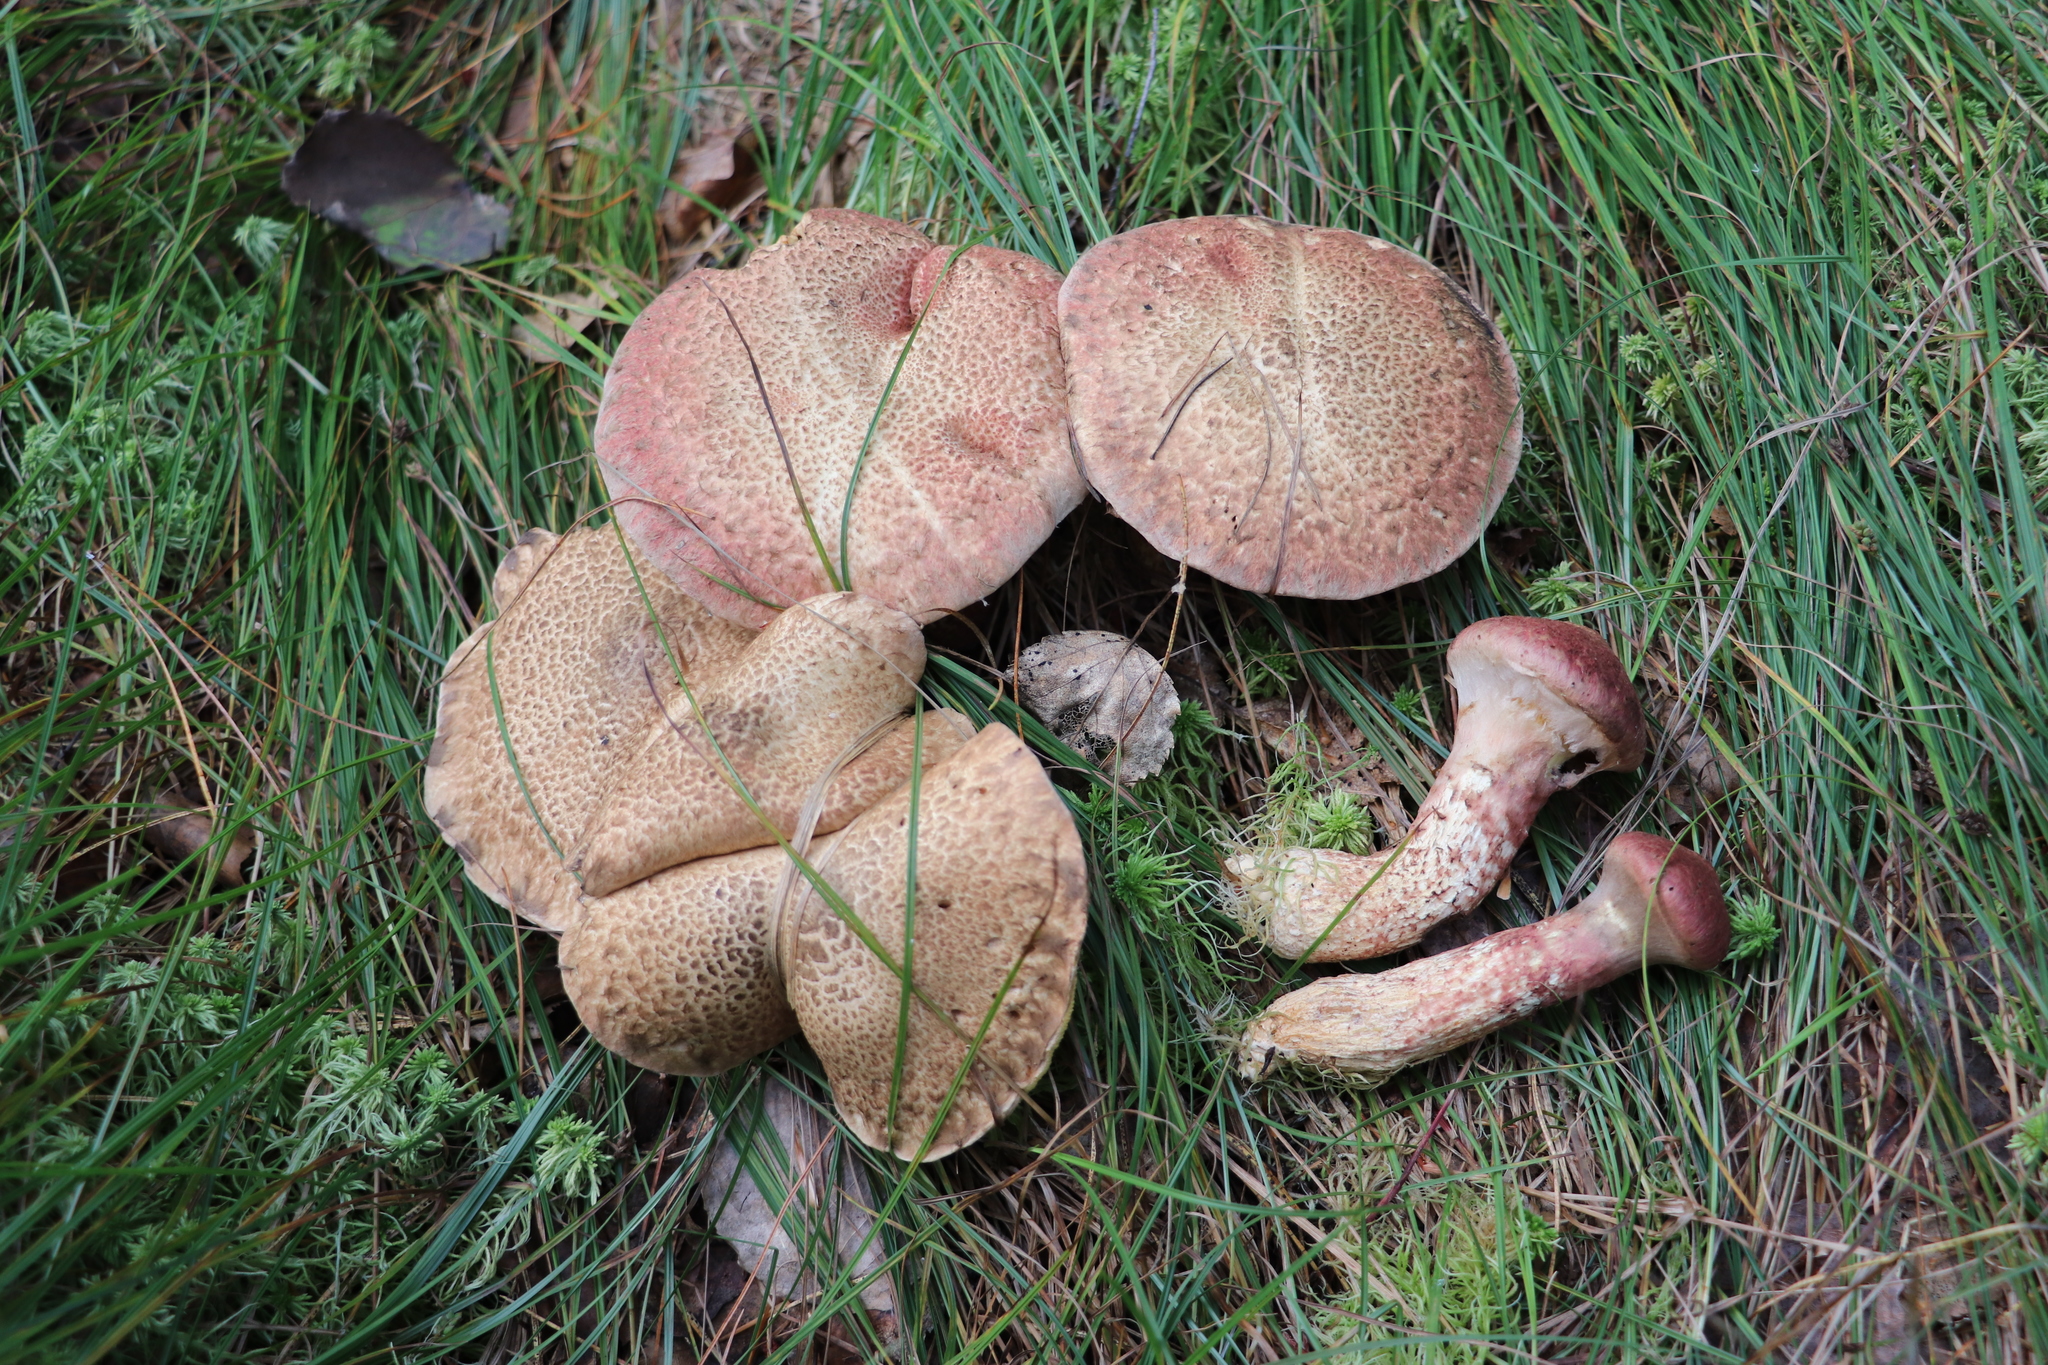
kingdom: Fungi
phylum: Basidiomycota
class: Agaricomycetes
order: Boletales
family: Suillaceae
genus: Suillus
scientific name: Suillus spraguei
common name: Painted suillus
